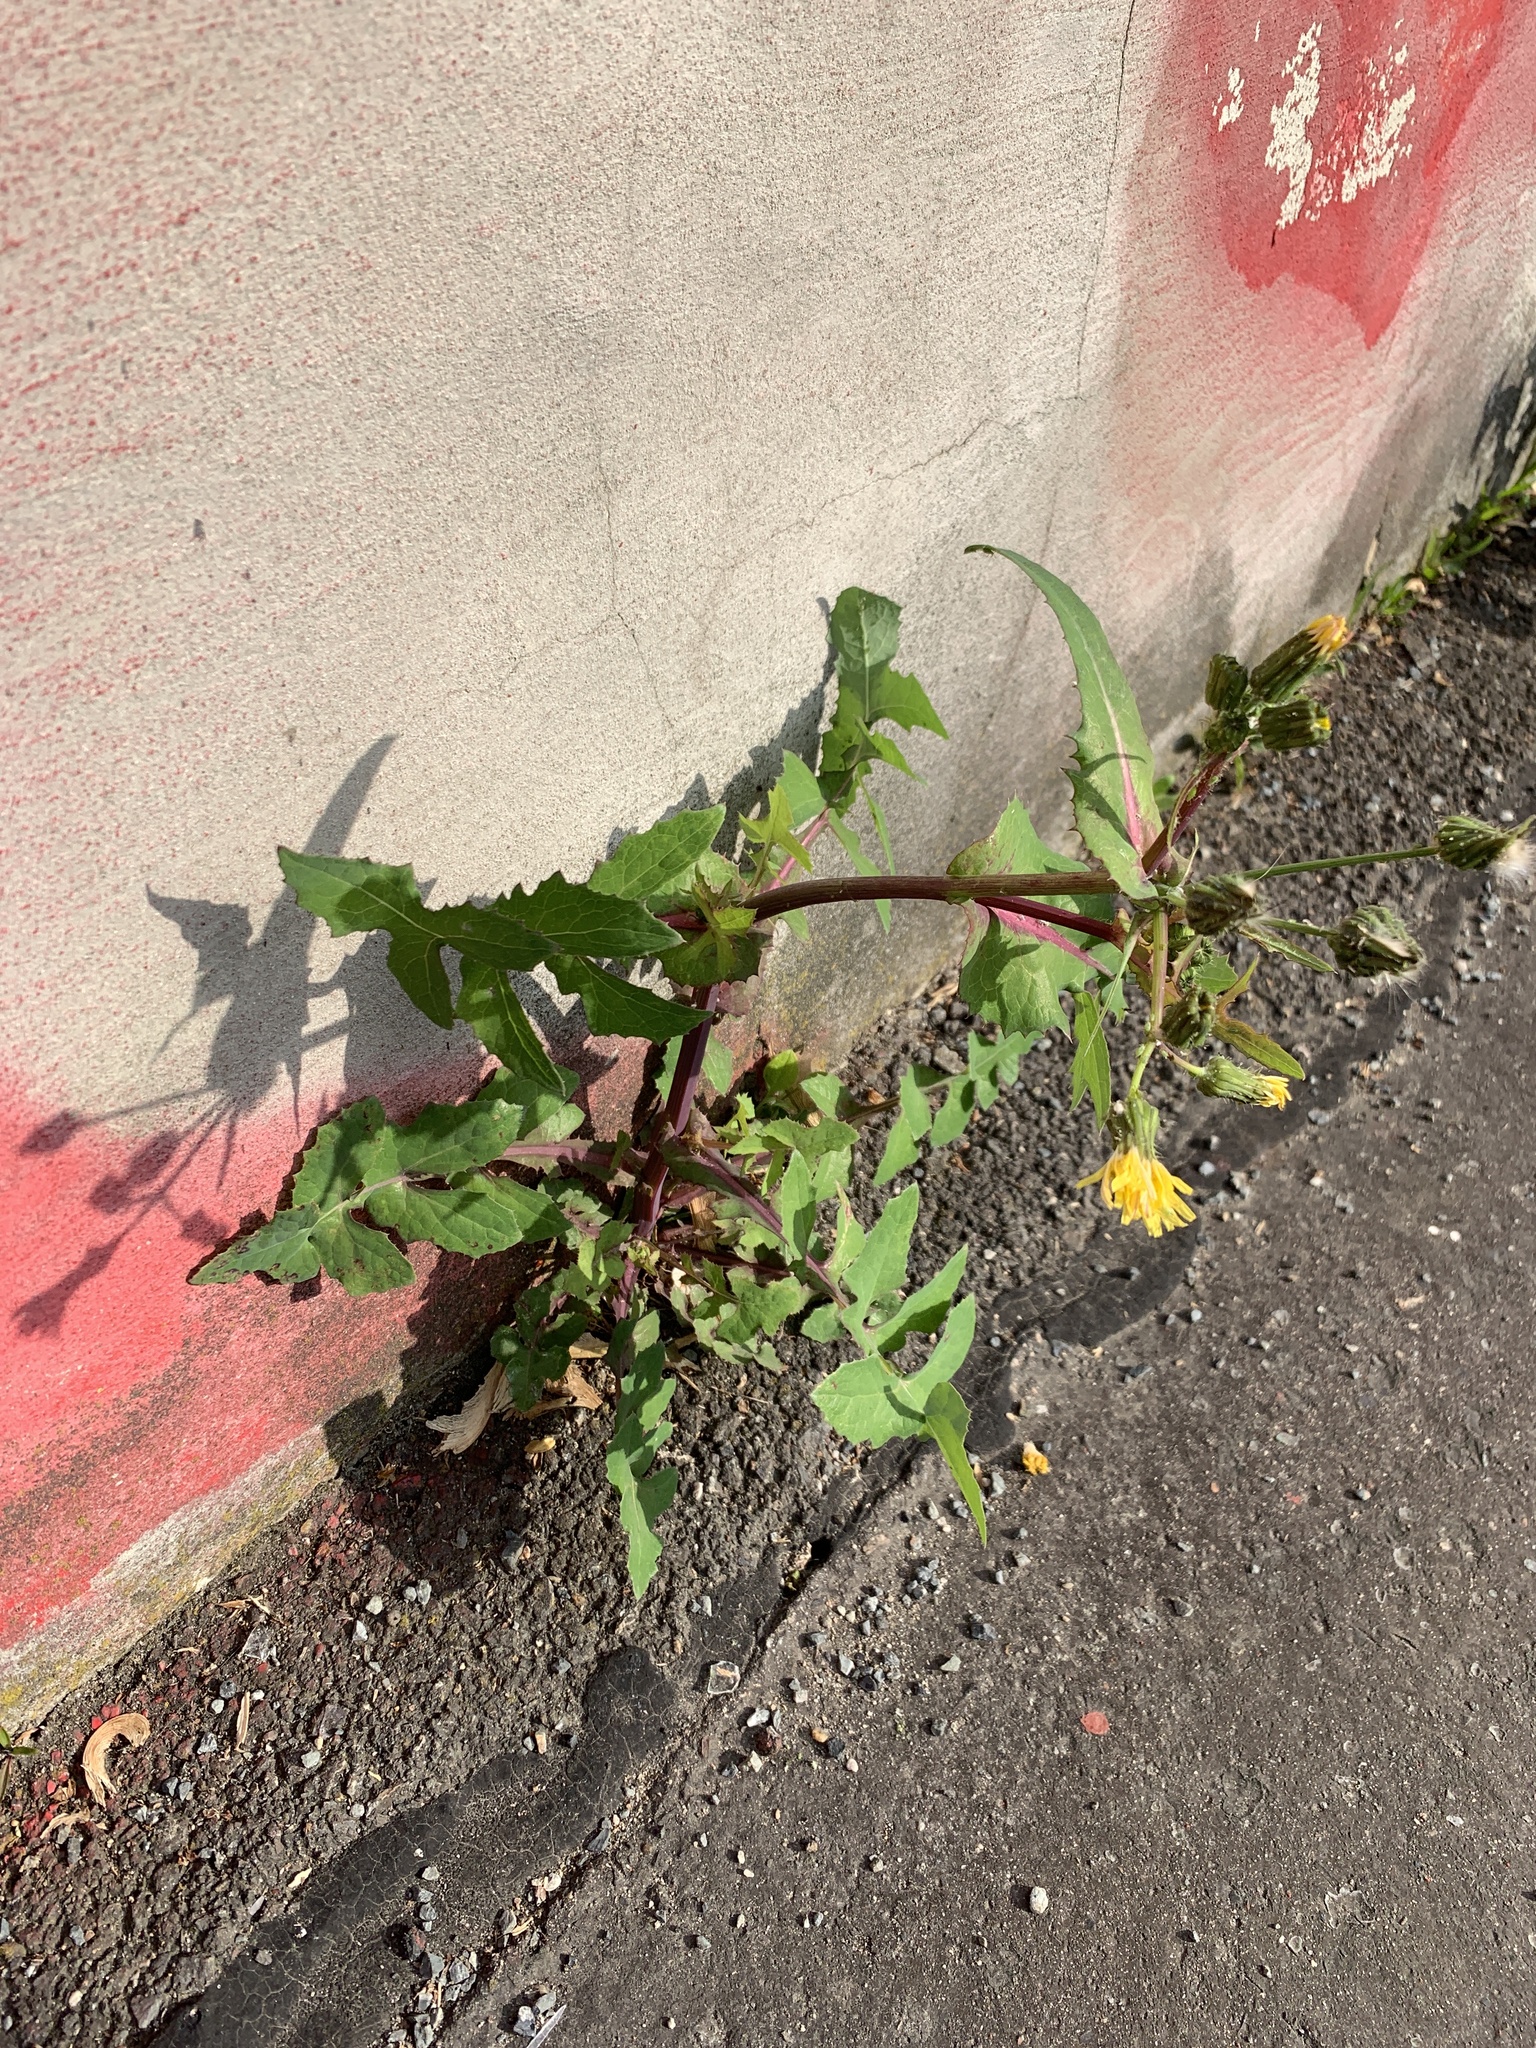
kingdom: Plantae
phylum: Tracheophyta
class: Magnoliopsida
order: Asterales
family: Asteraceae
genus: Sonchus
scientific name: Sonchus oleraceus
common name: Common sowthistle
